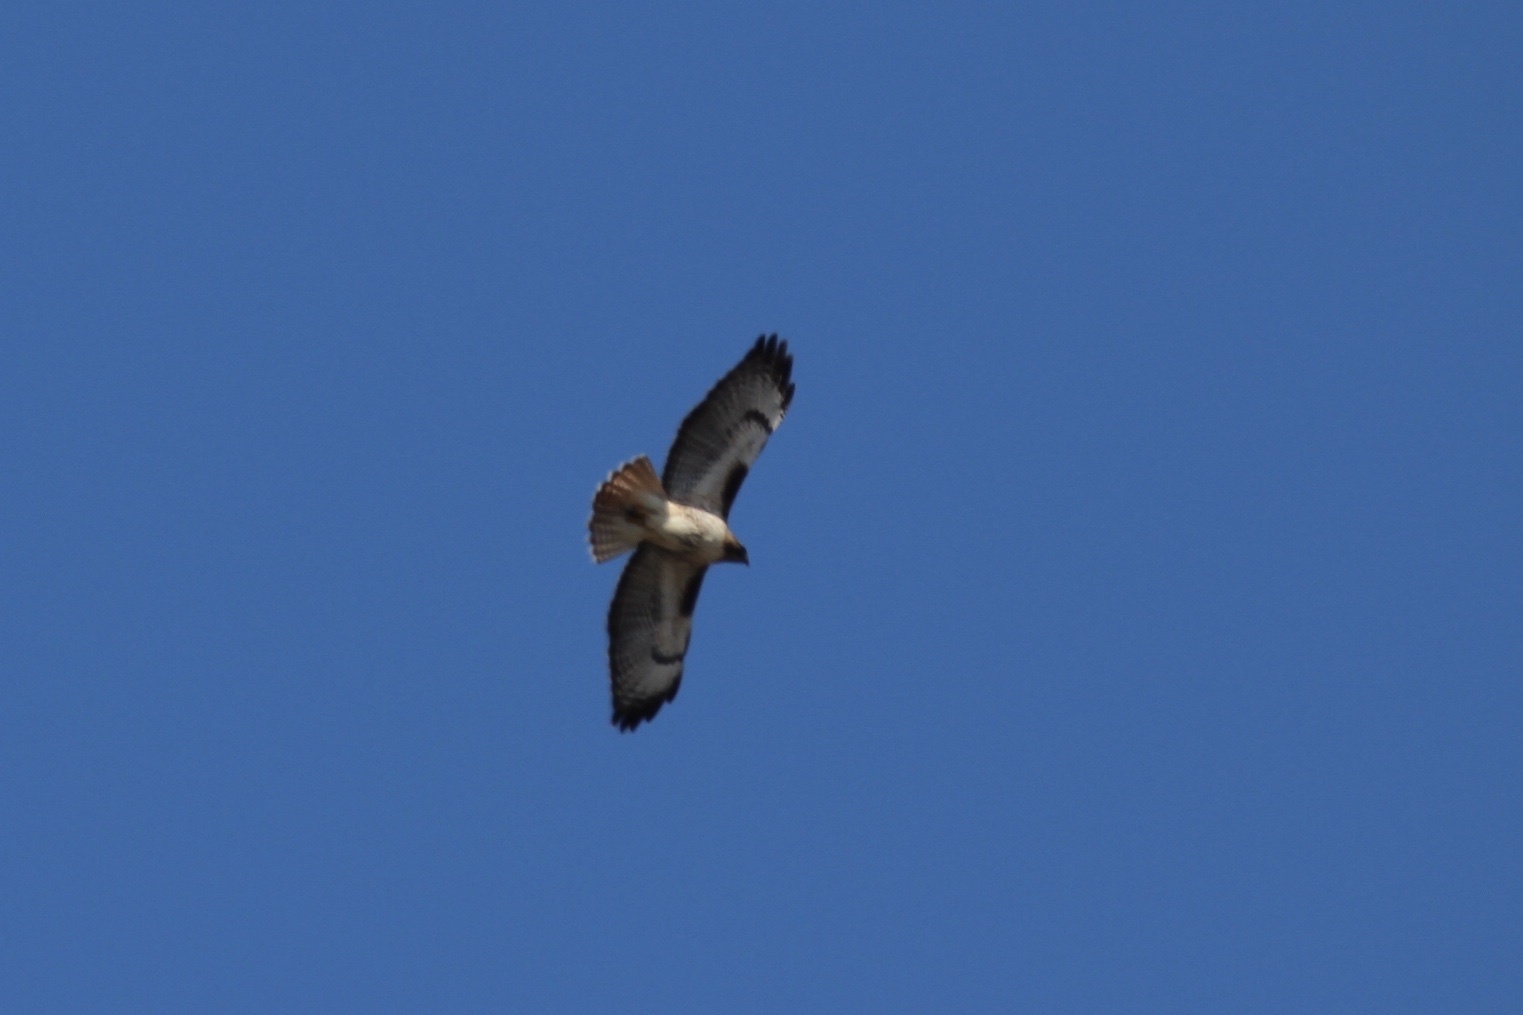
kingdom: Animalia
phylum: Chordata
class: Aves
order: Accipitriformes
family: Accipitridae
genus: Buteo
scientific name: Buteo jamaicensis
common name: Red-tailed hawk
